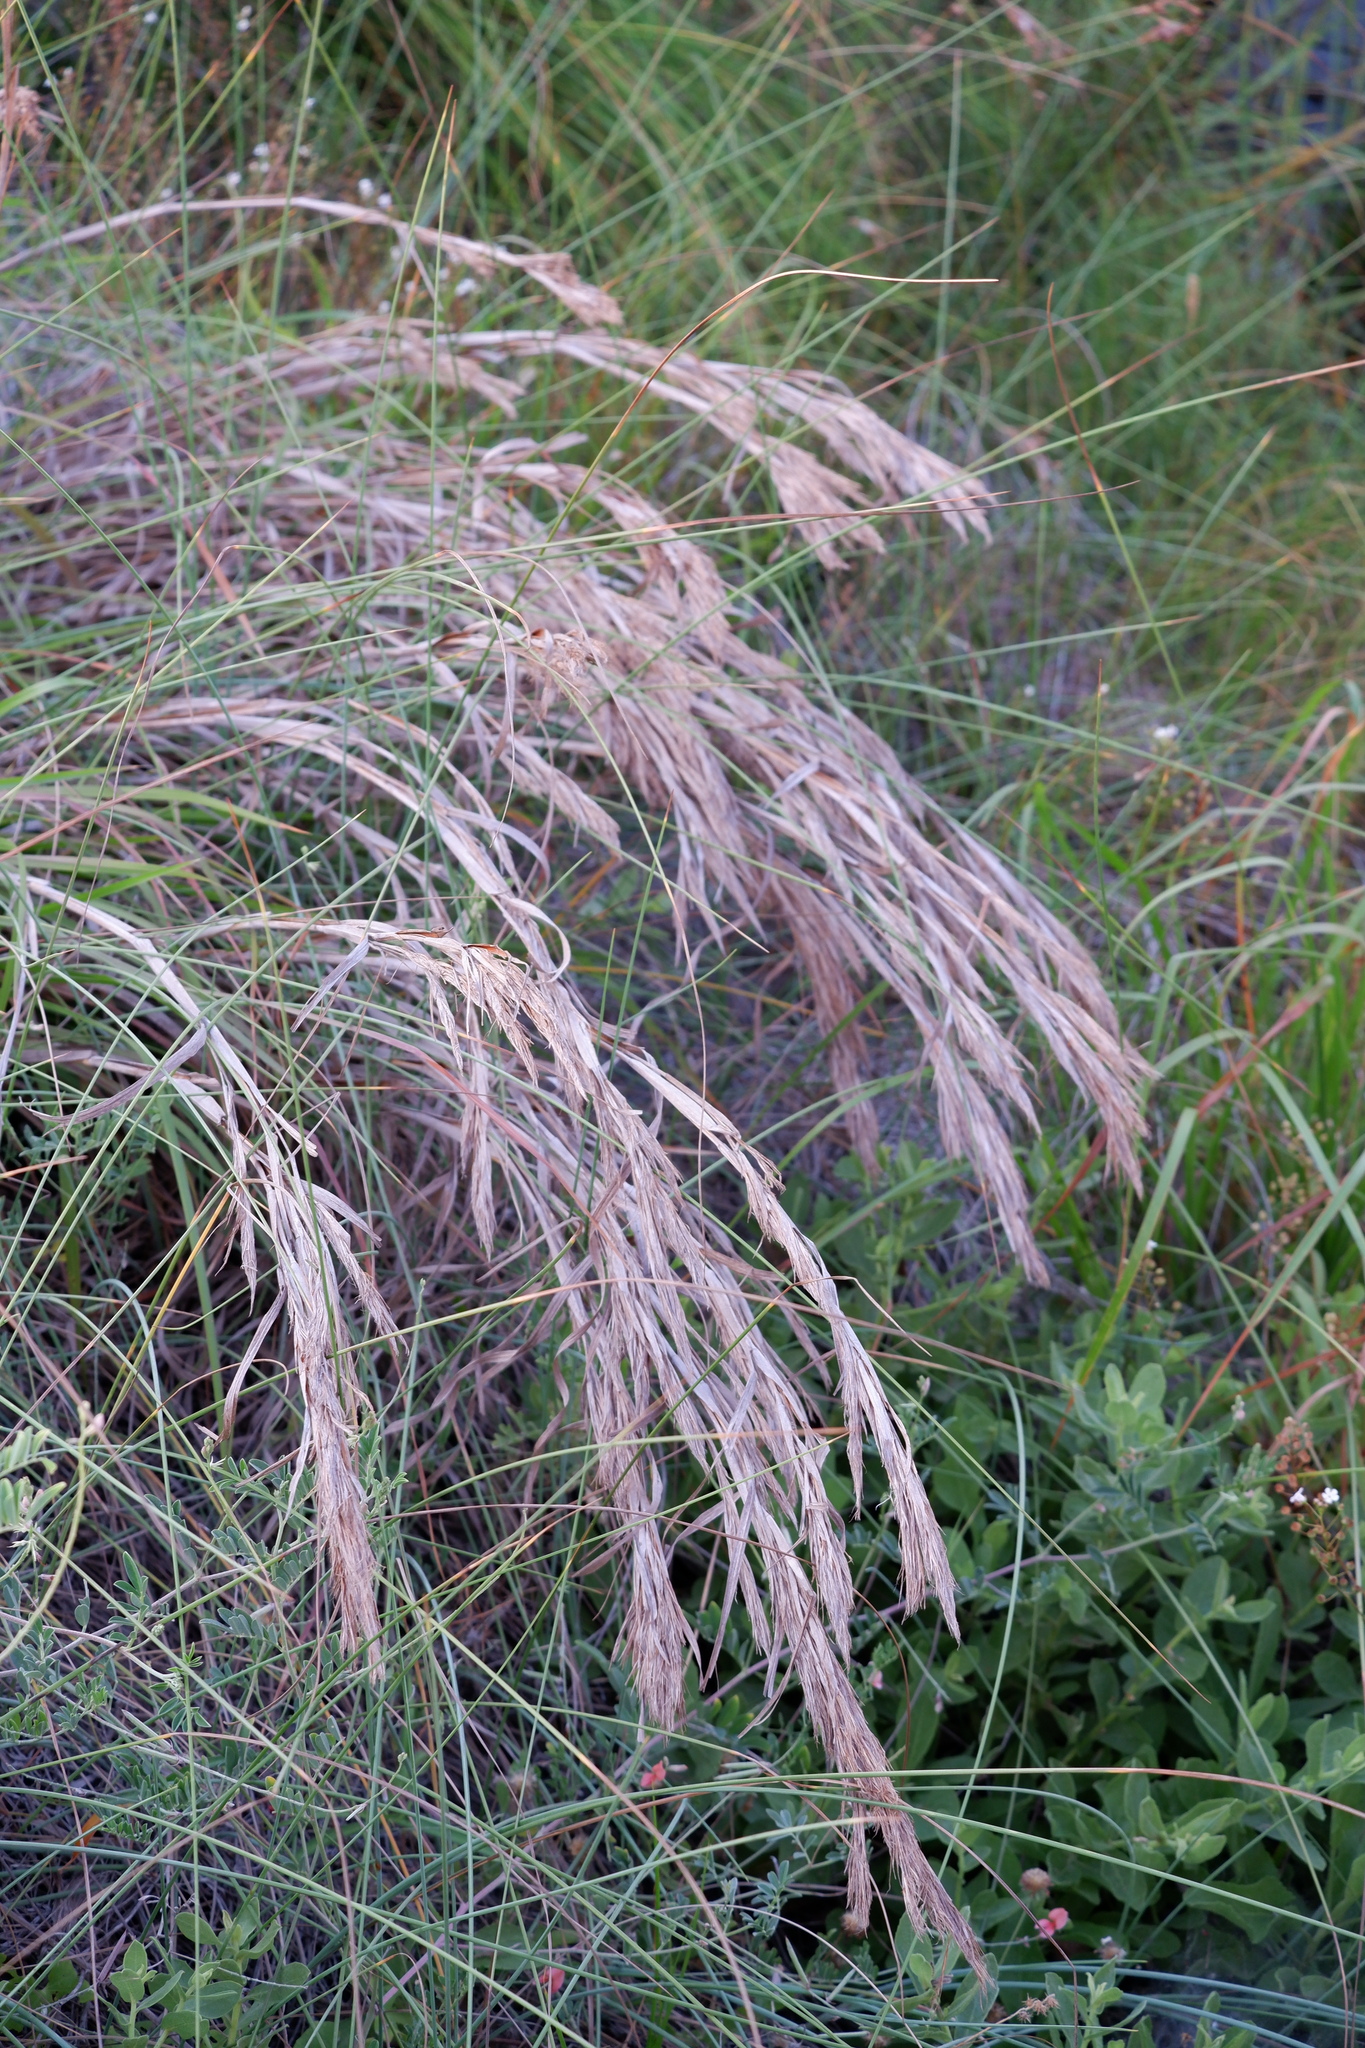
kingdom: Plantae
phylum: Tracheophyta
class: Liliopsida
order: Poales
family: Poaceae
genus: Schizachyrium
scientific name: Schizachyrium scoparium
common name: Little bluestem
